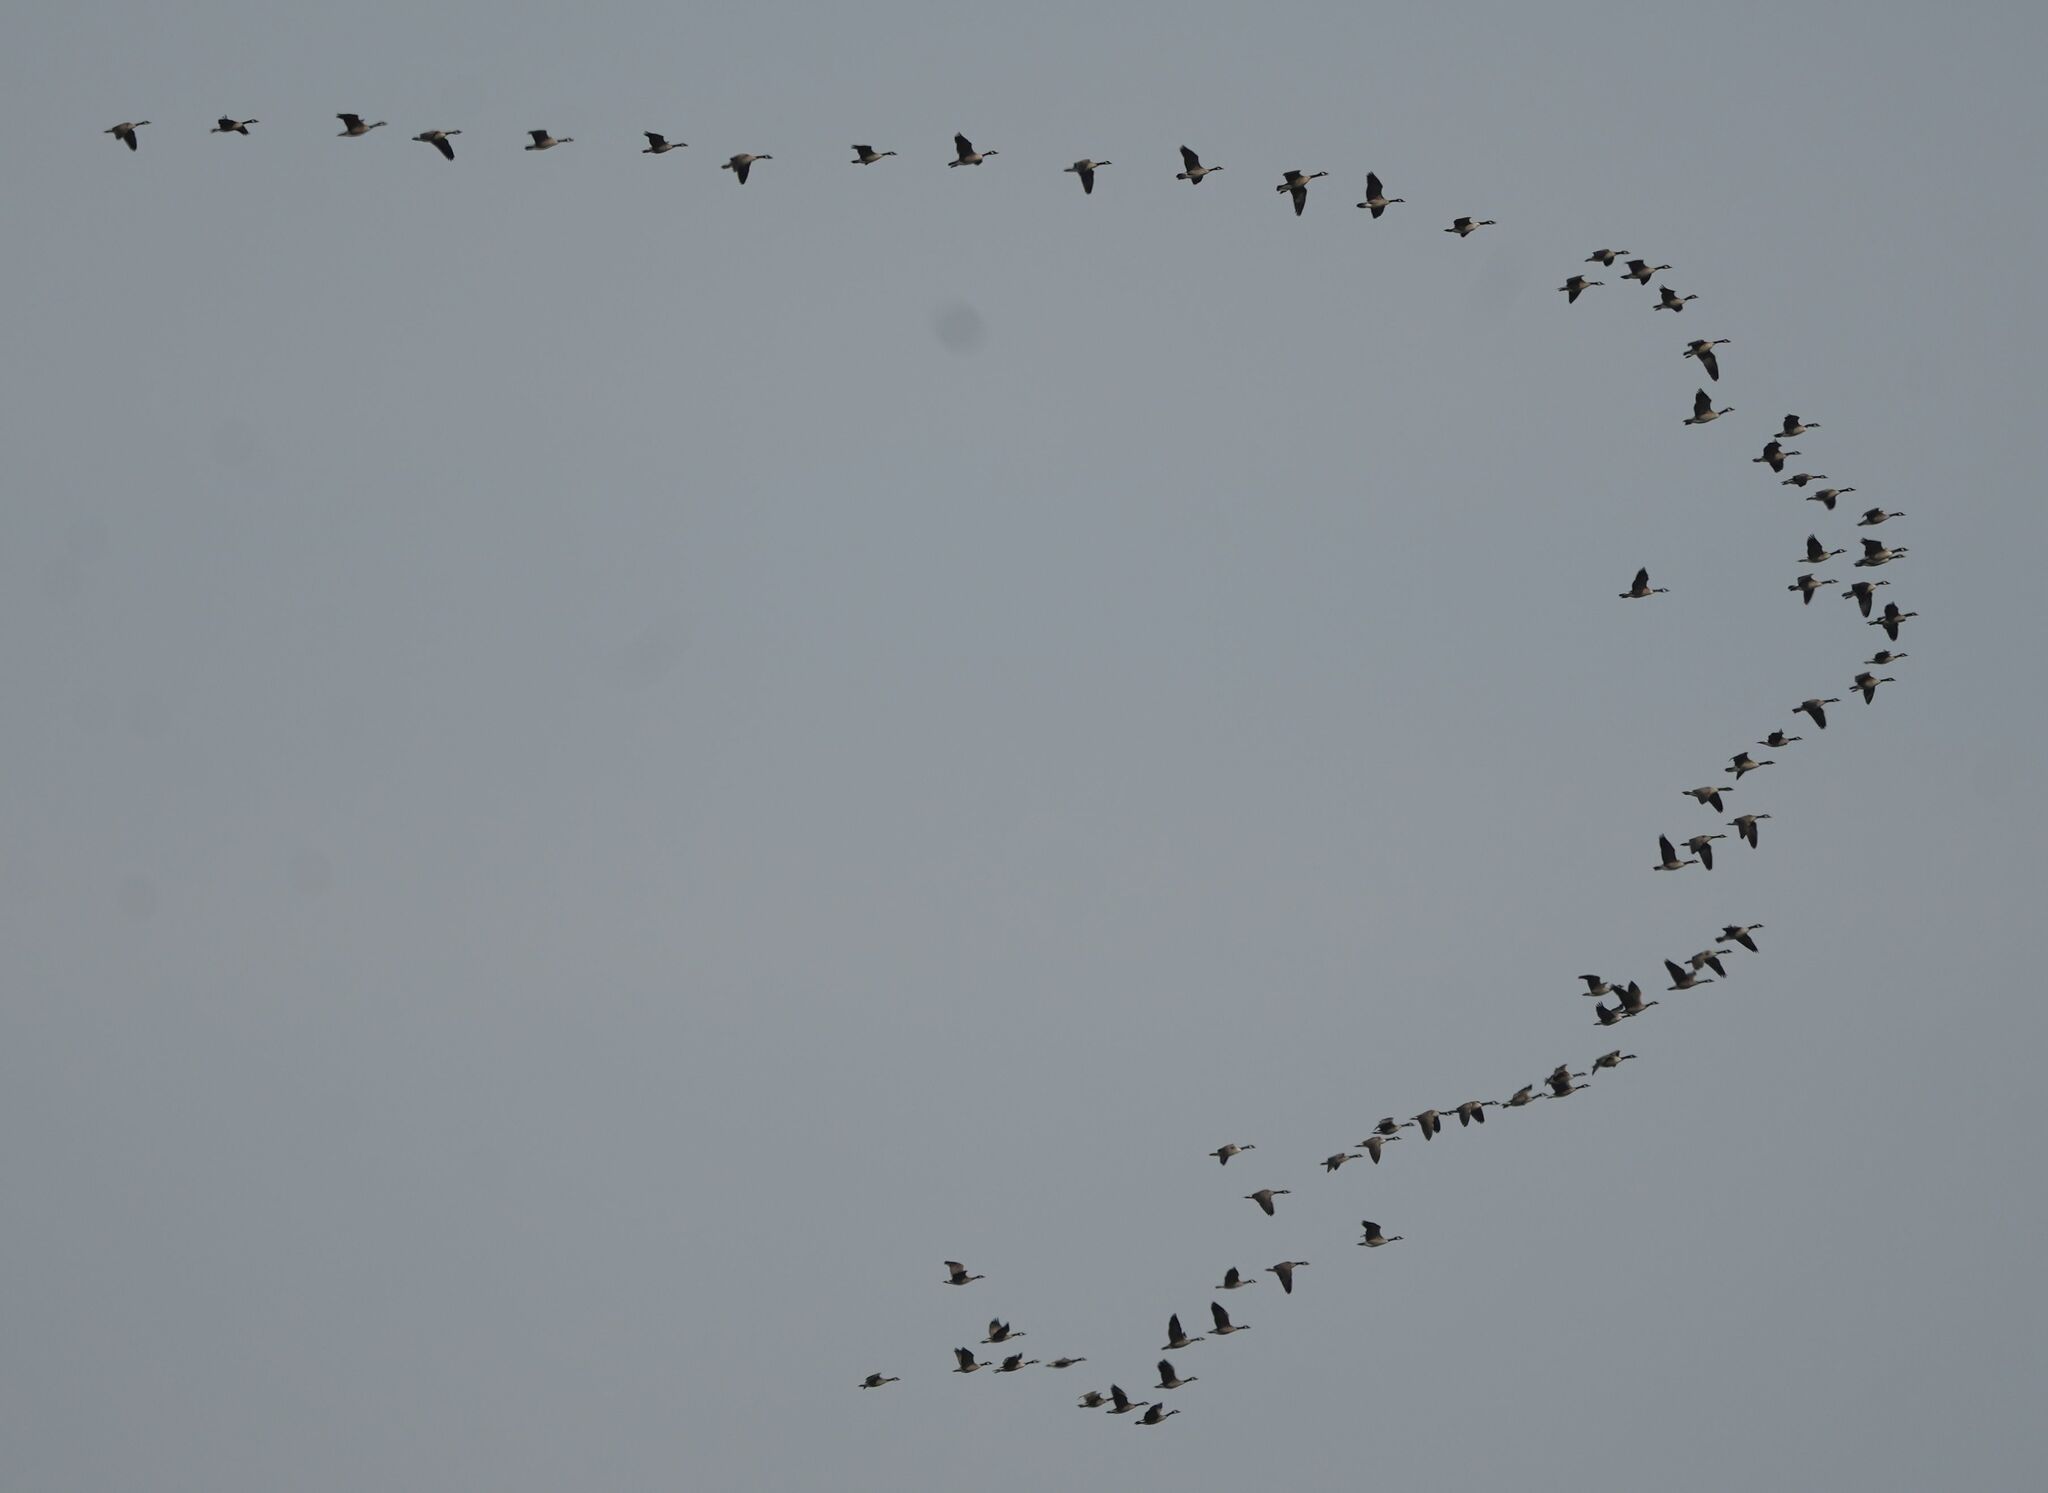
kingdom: Animalia
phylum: Chordata
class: Aves
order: Anseriformes
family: Anatidae
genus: Branta
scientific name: Branta canadensis
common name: Canada goose
